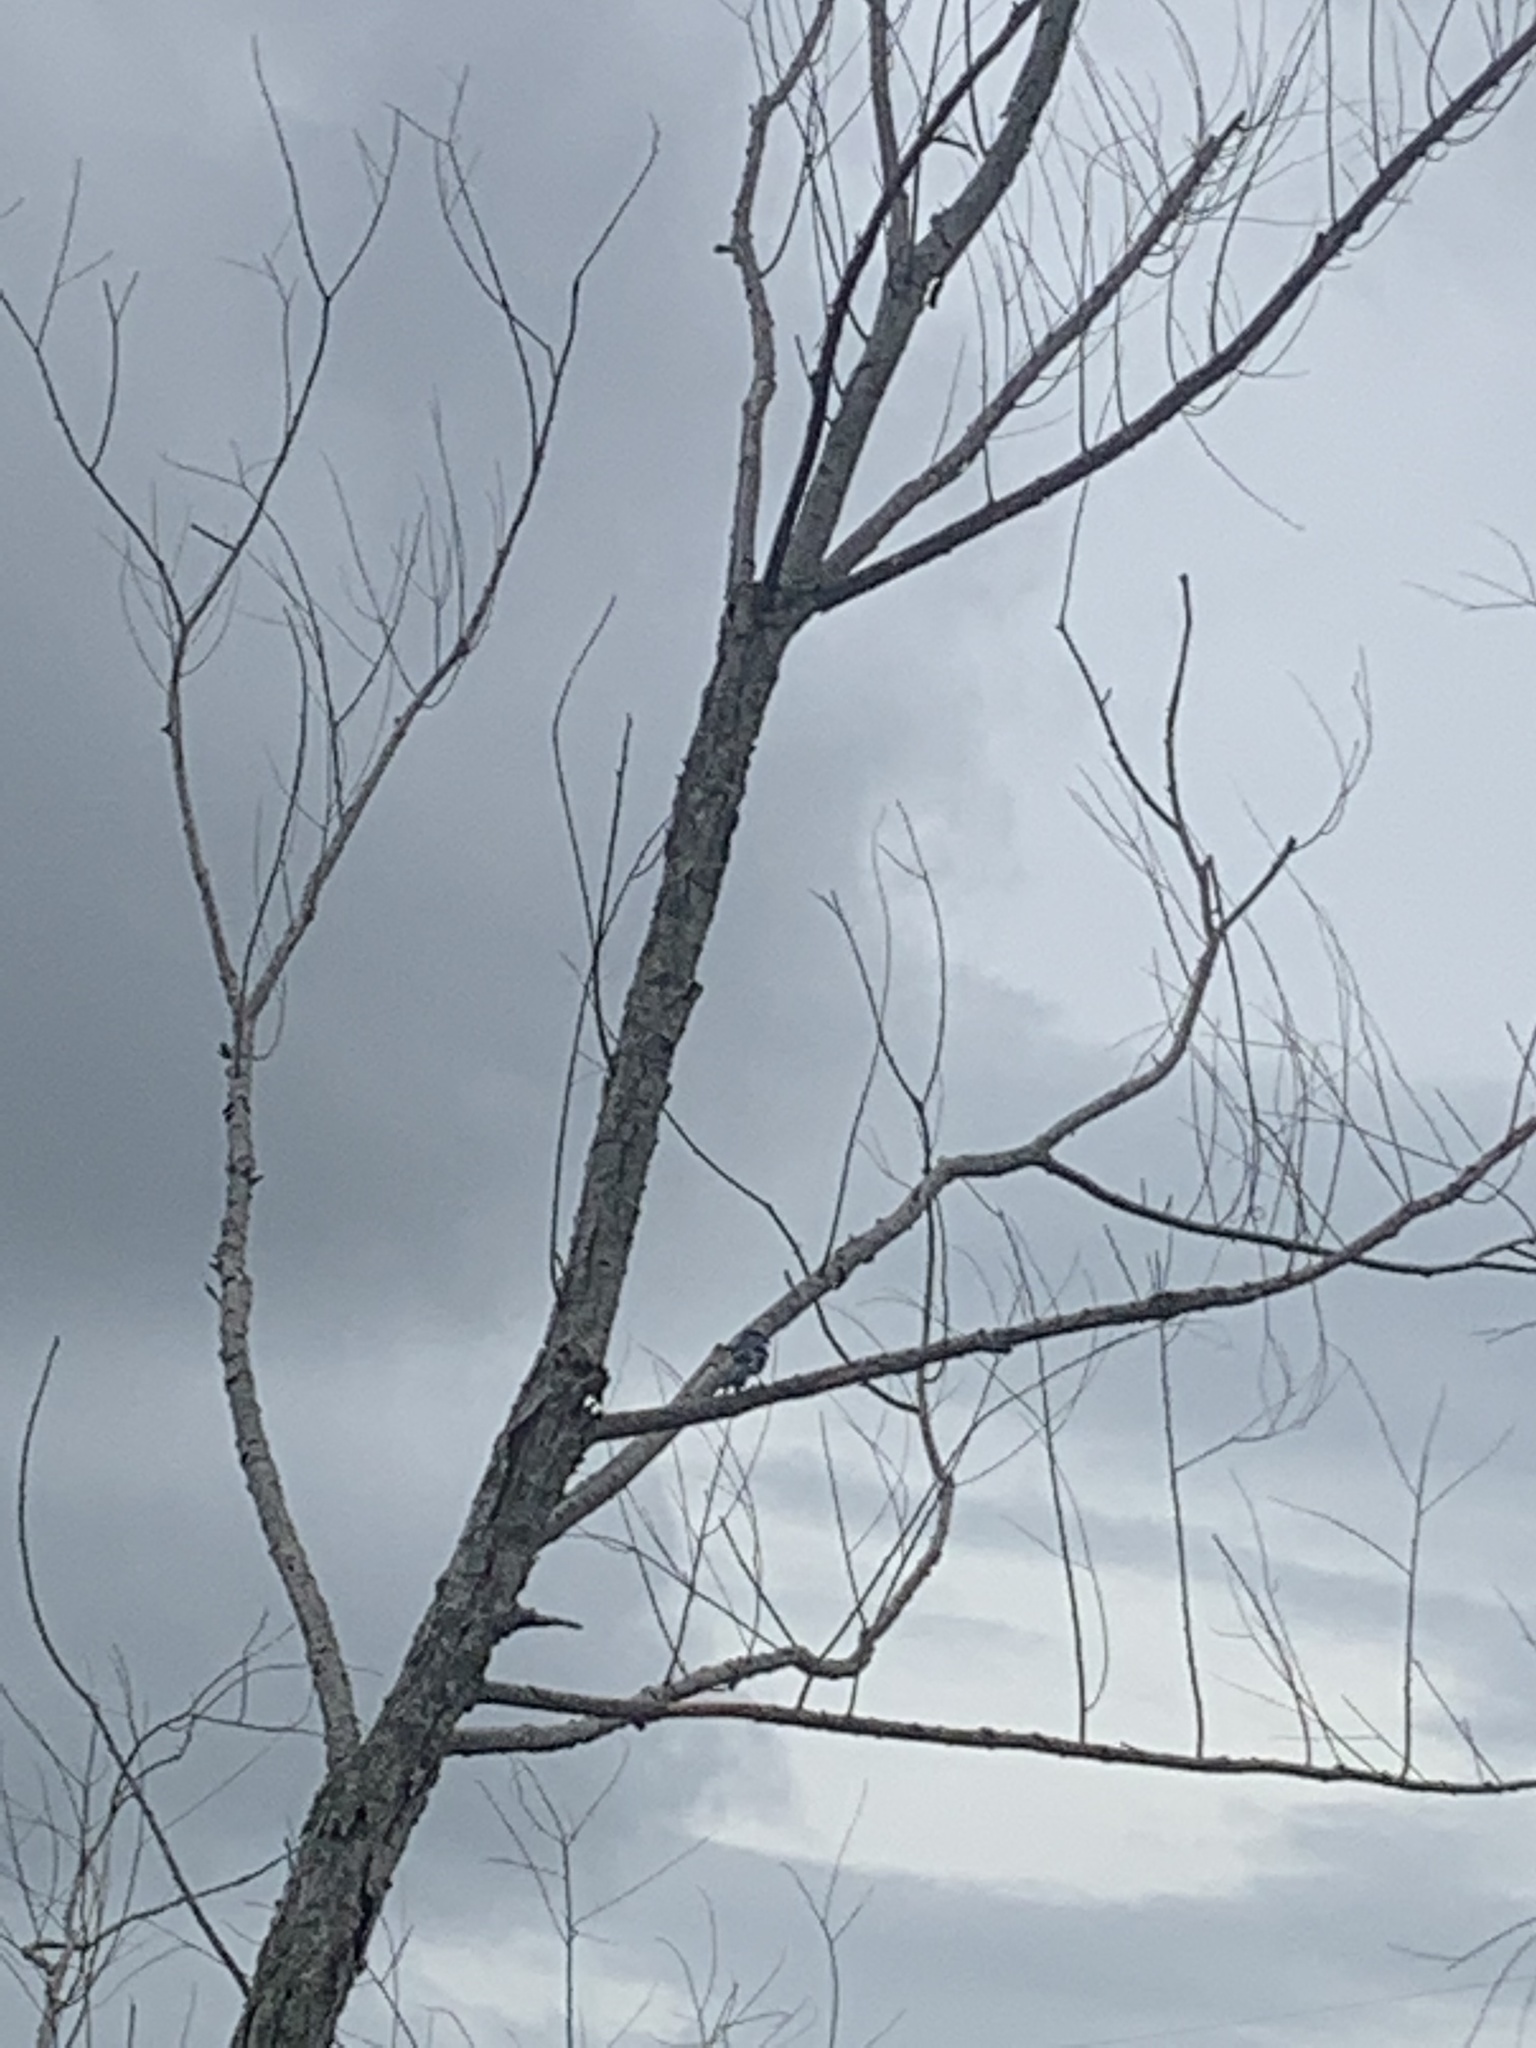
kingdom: Animalia
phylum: Chordata
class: Aves
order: Passeriformes
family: Corvidae
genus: Cyanocitta
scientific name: Cyanocitta cristata
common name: Blue jay
